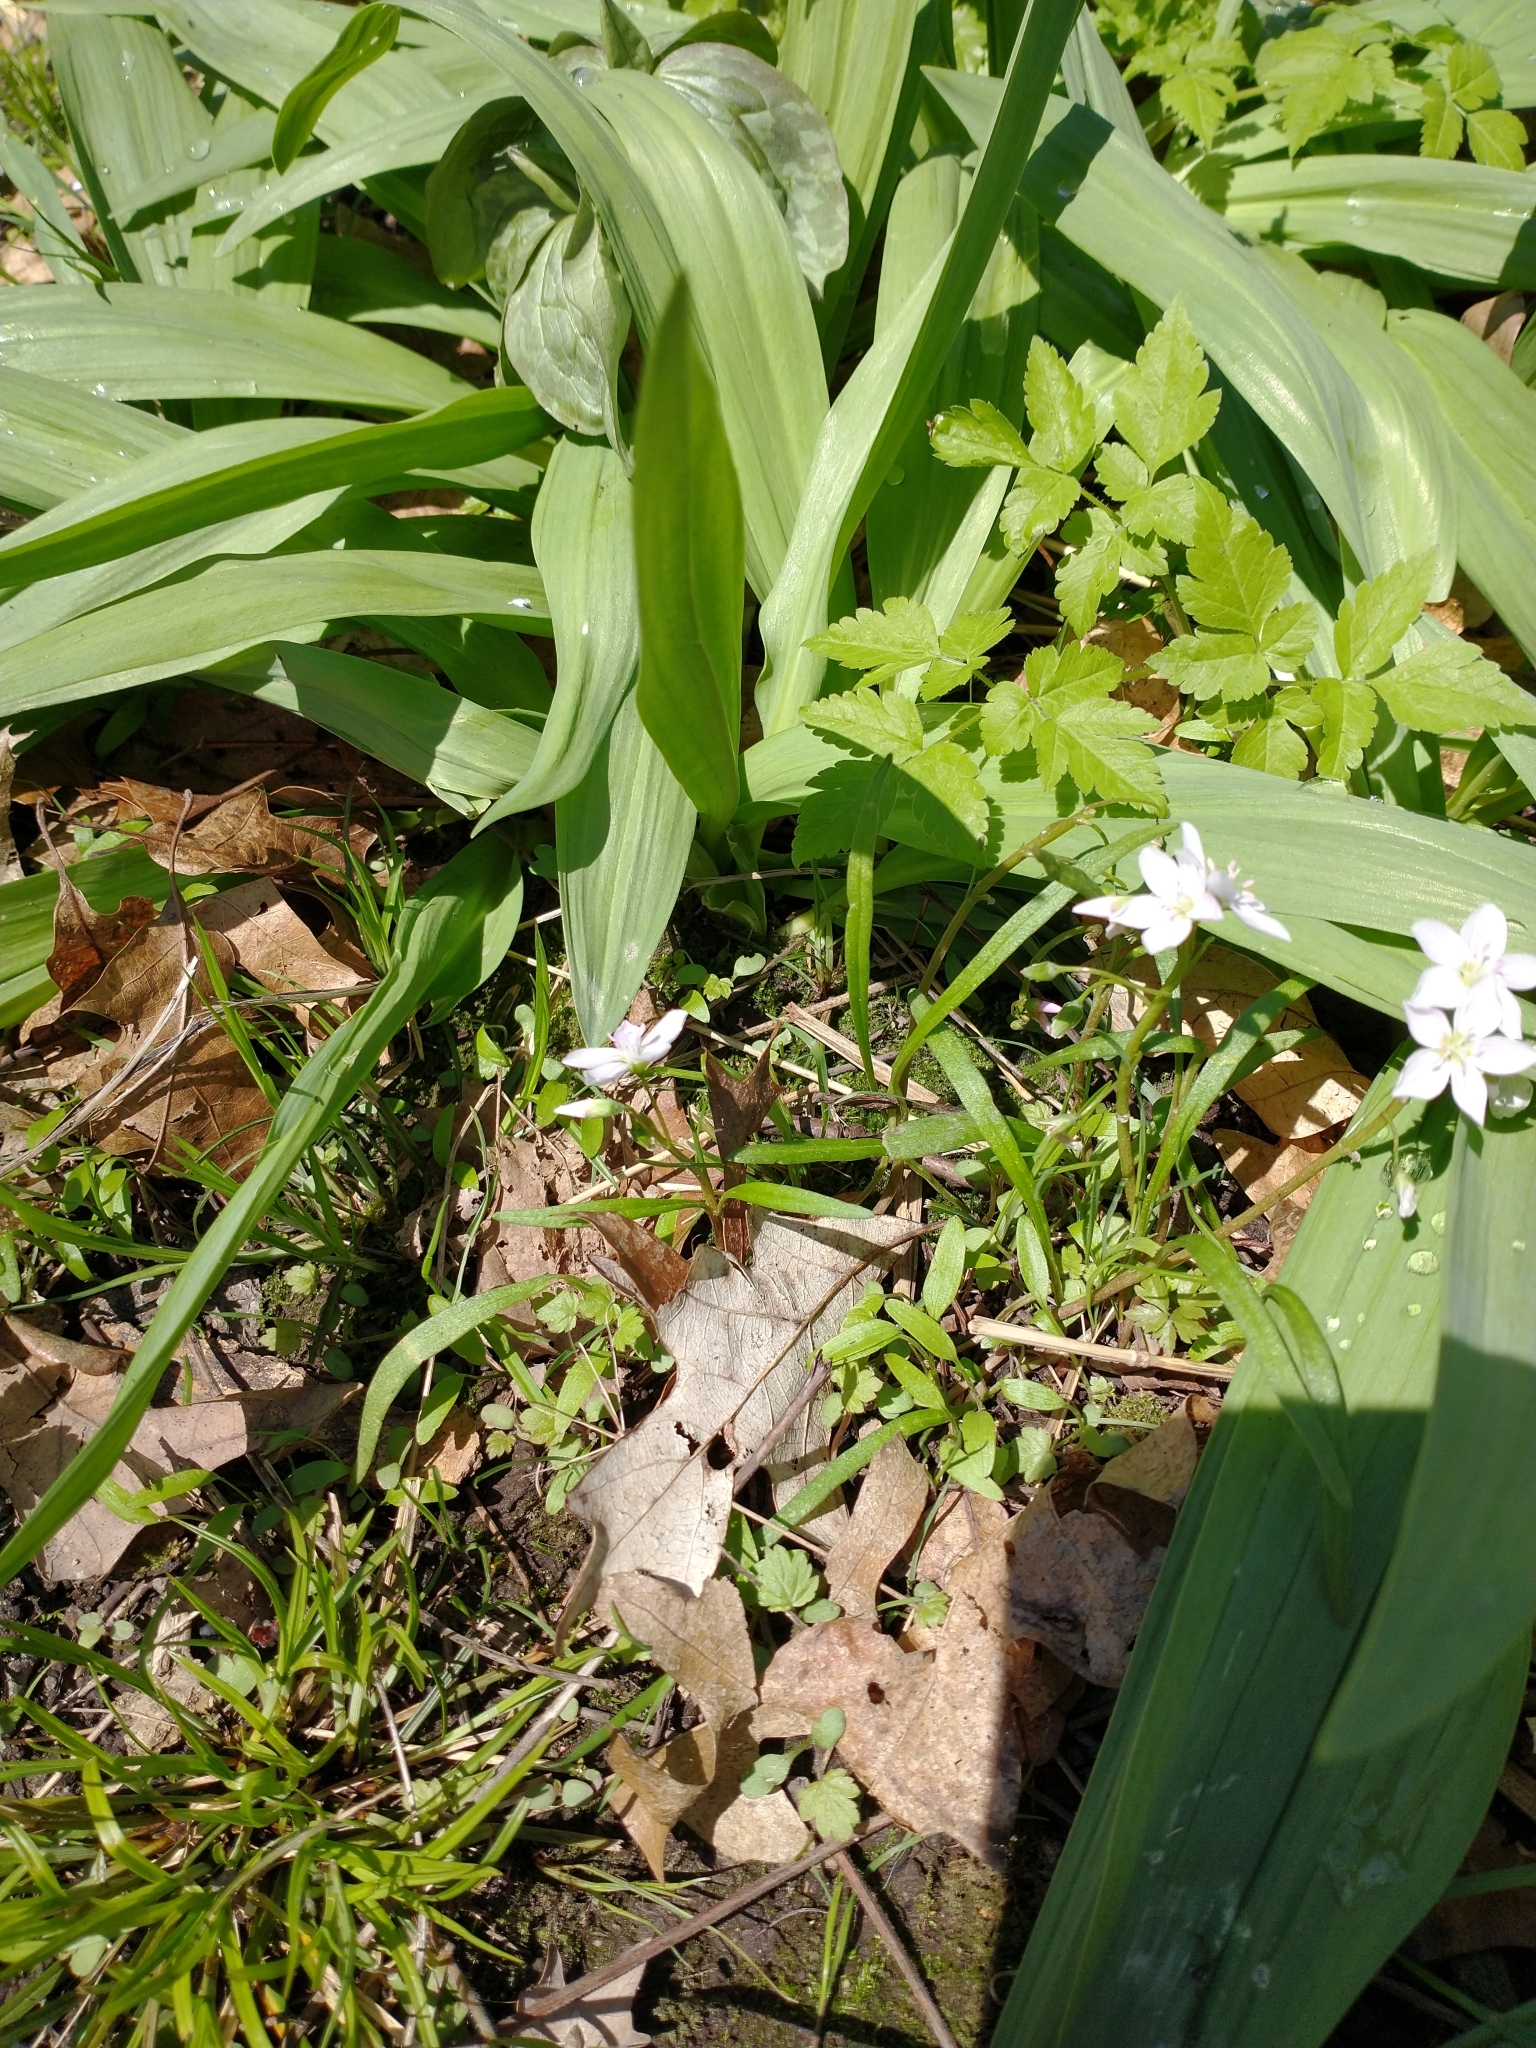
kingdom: Plantae
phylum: Tracheophyta
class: Liliopsida
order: Asparagales
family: Amaryllidaceae
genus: Allium
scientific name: Allium tricoccum
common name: Ramp
